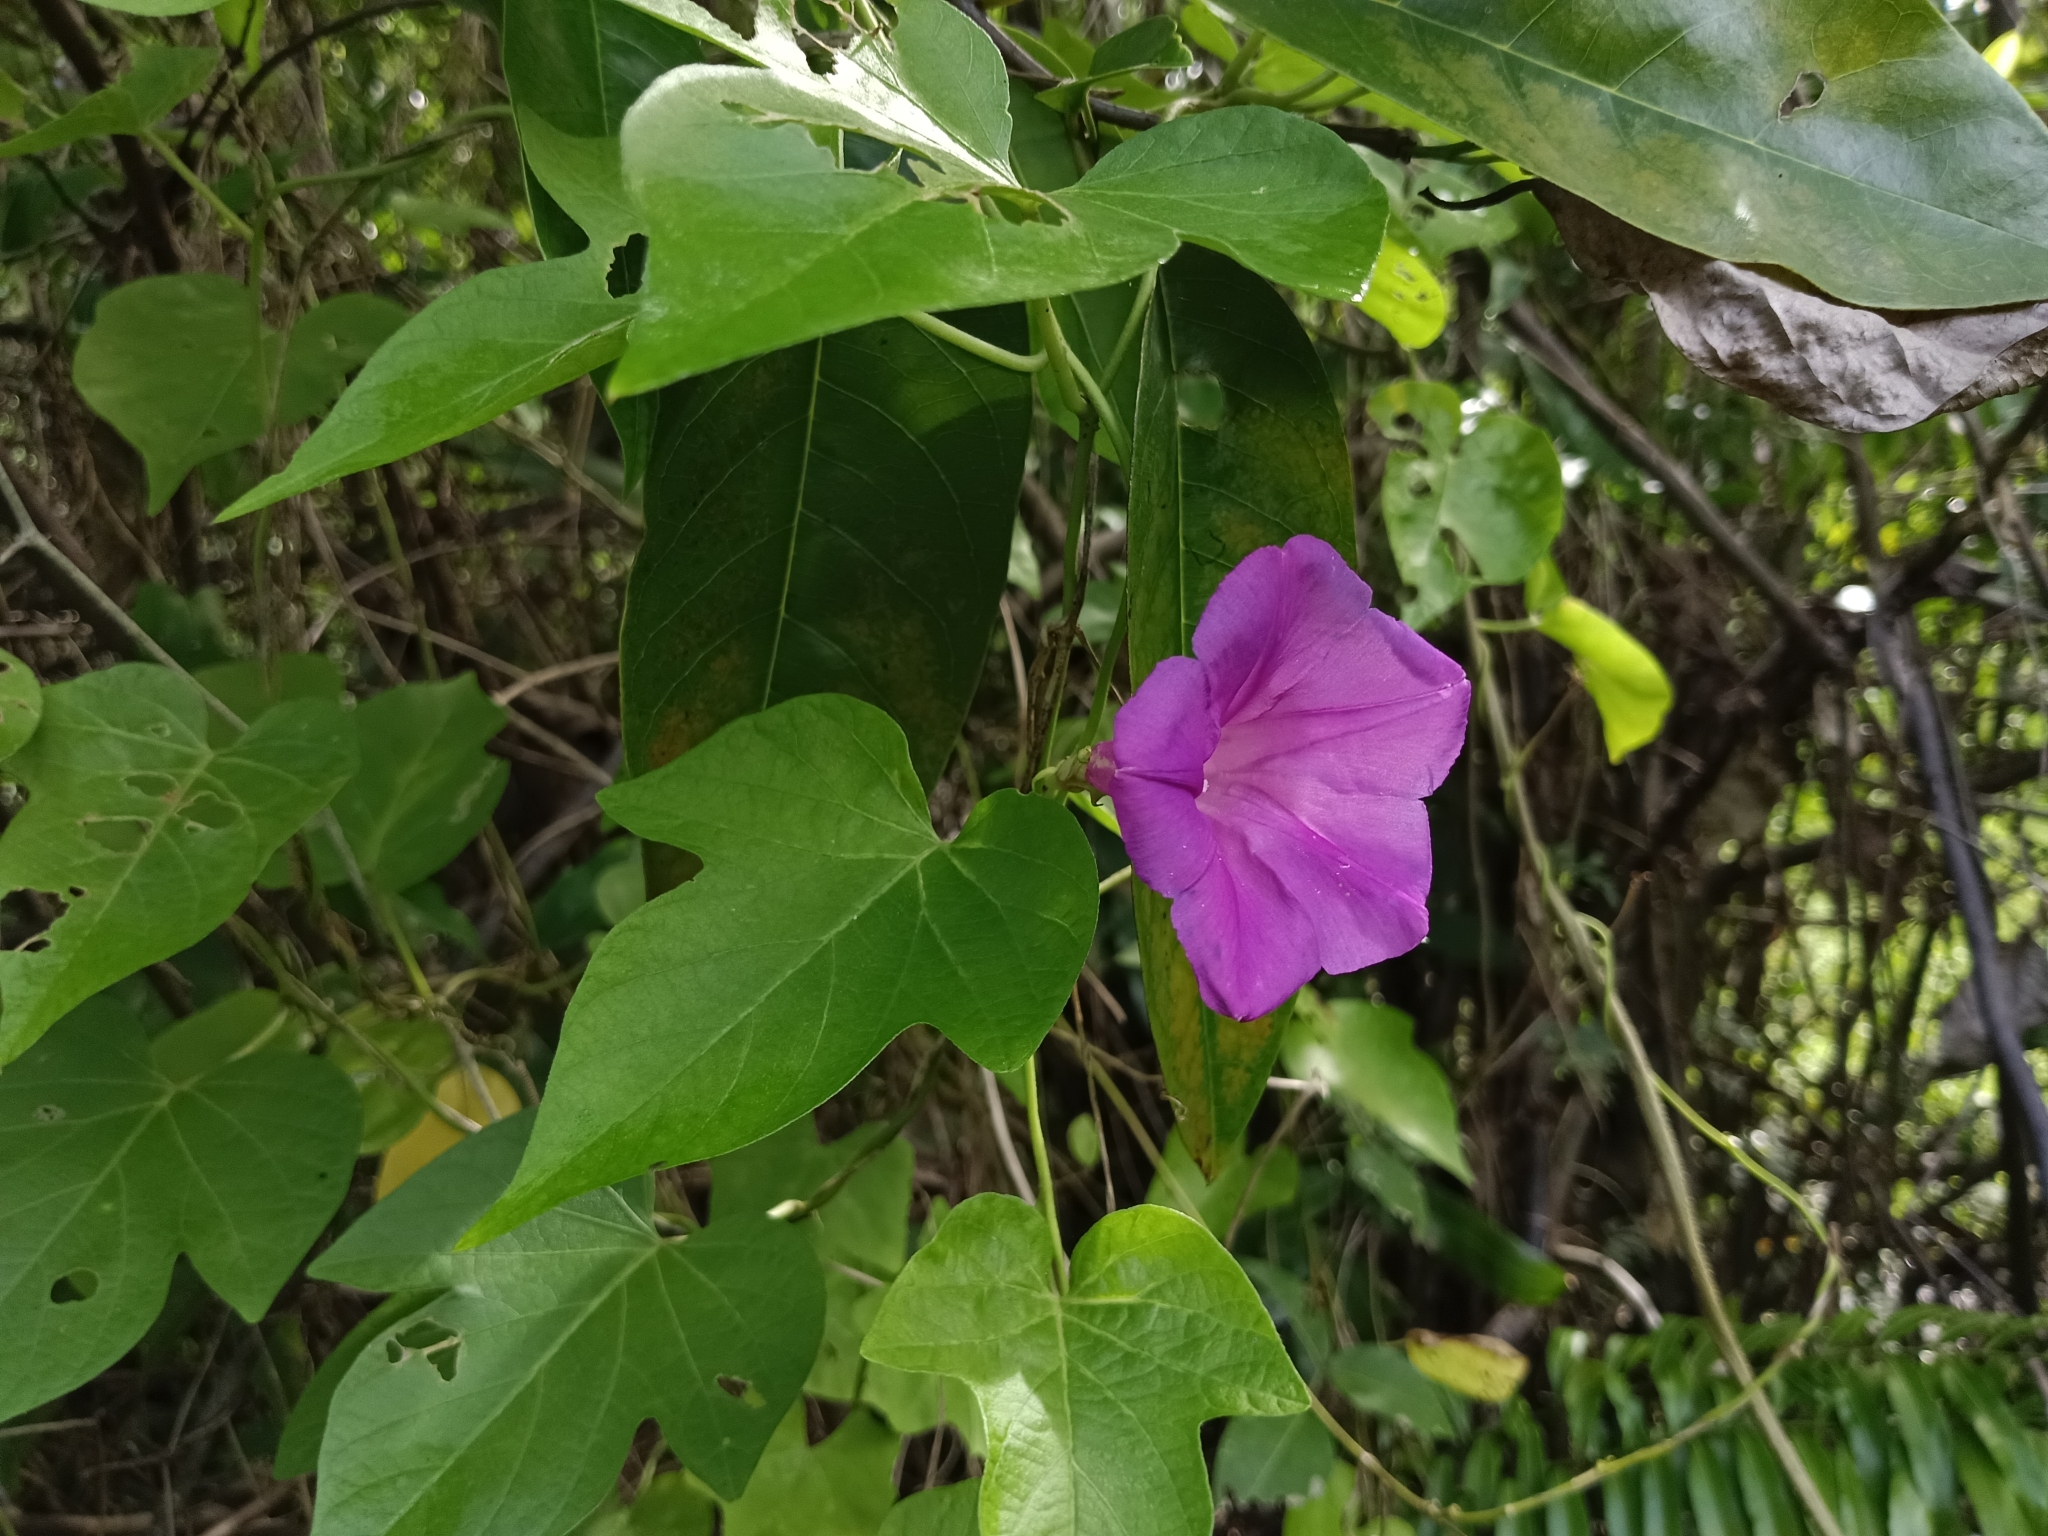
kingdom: Plantae
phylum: Tracheophyta
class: Magnoliopsida
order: Solanales
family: Convolvulaceae
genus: Ipomoea
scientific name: Ipomoea indica
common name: Blue dawnflower
